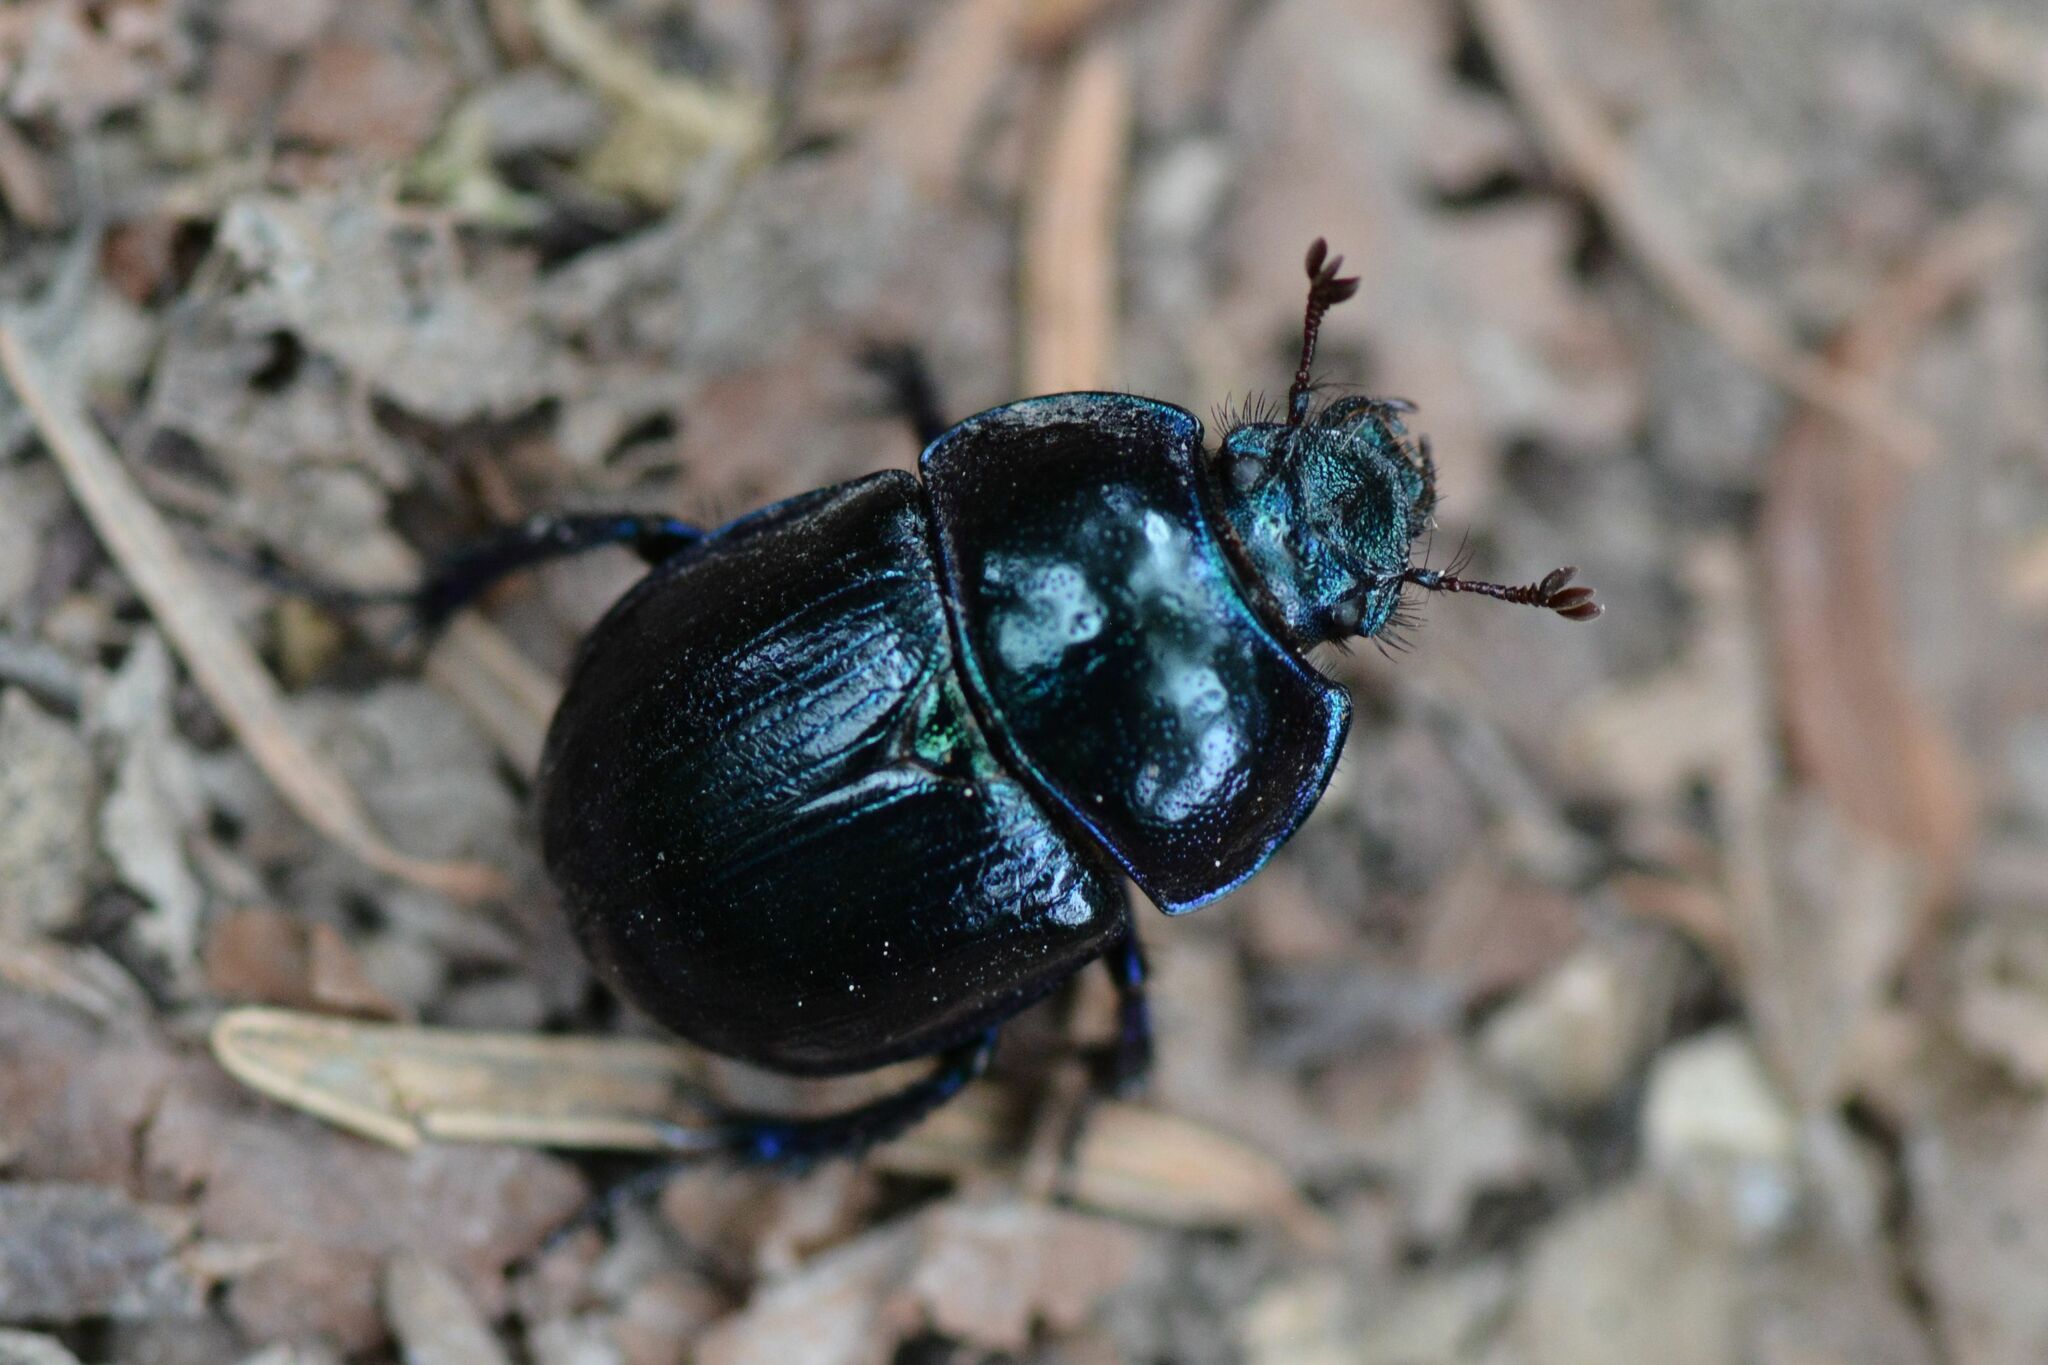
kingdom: Animalia
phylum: Arthropoda
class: Insecta
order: Coleoptera
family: Geotrupidae
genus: Anoplotrupes
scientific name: Anoplotrupes stercorosus
